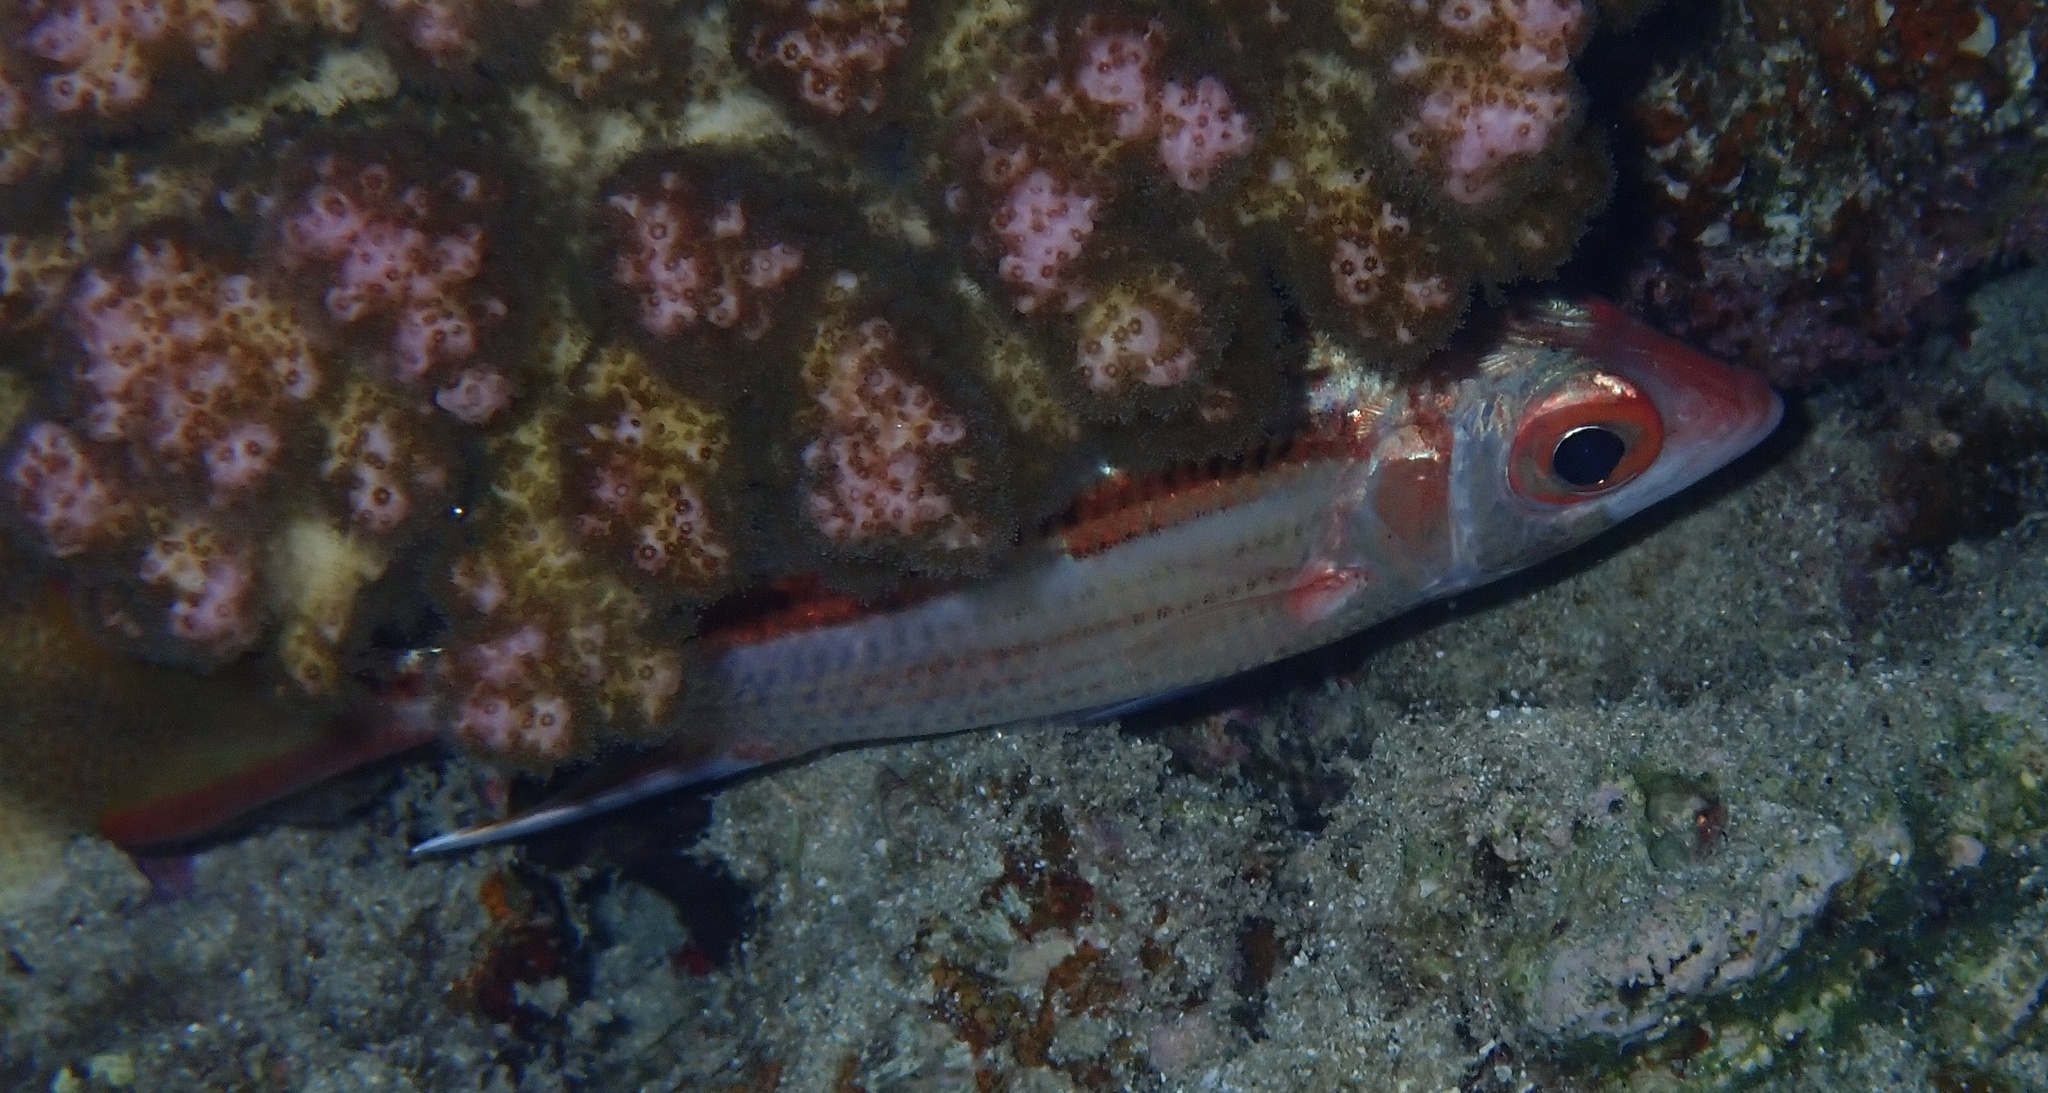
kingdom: Animalia
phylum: Chordata
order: Beryciformes
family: Holocentridae
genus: Neoniphon
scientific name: Neoniphon sammara
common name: Sammara squirrelfish
